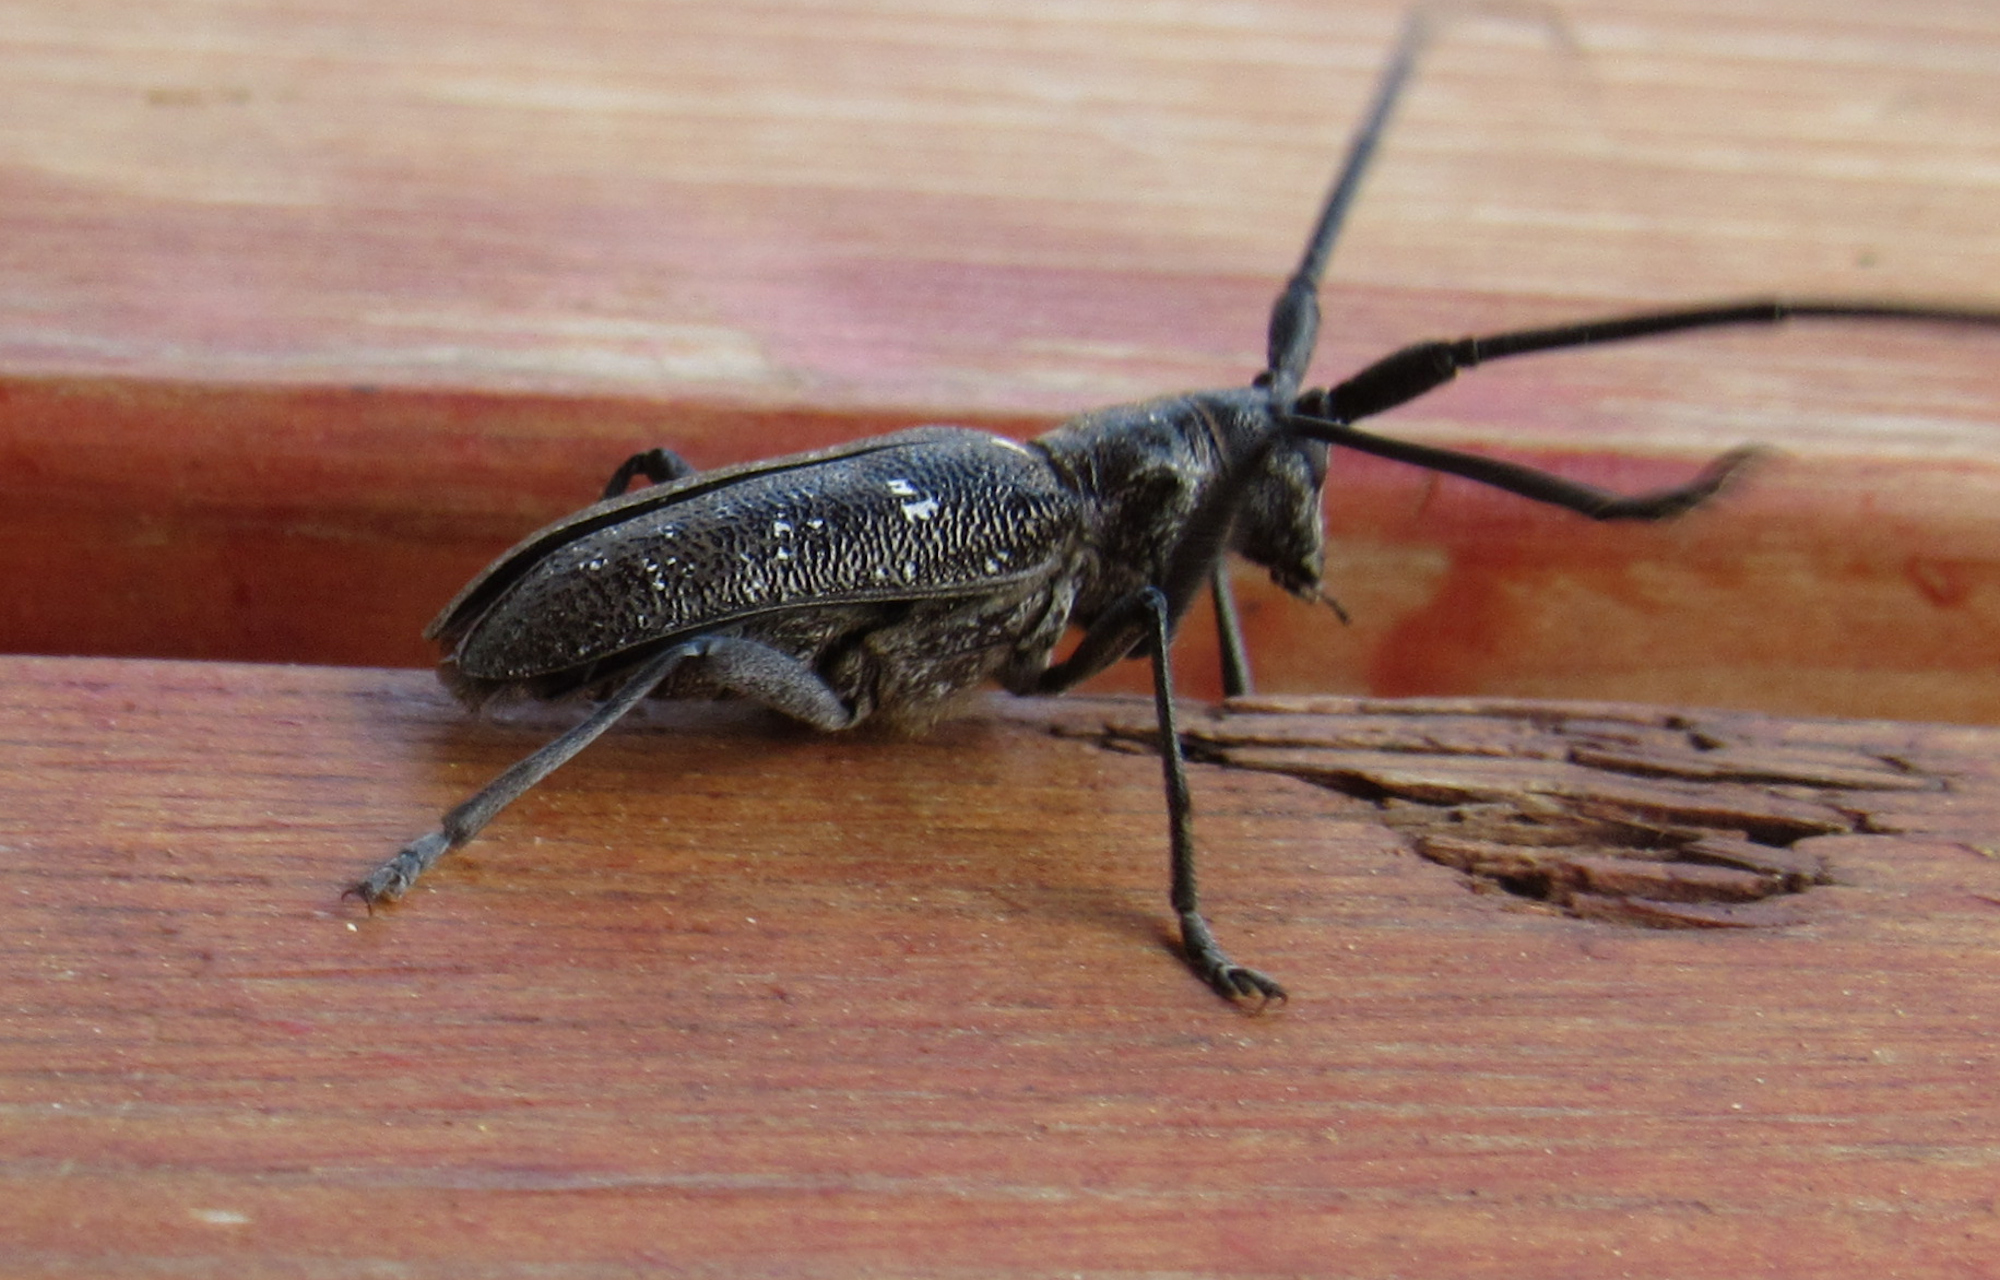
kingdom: Animalia
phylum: Arthropoda
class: Insecta
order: Coleoptera
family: Cerambycidae
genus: Monochamus
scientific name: Monochamus scutellatus
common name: White-spotted sawyer beetle
